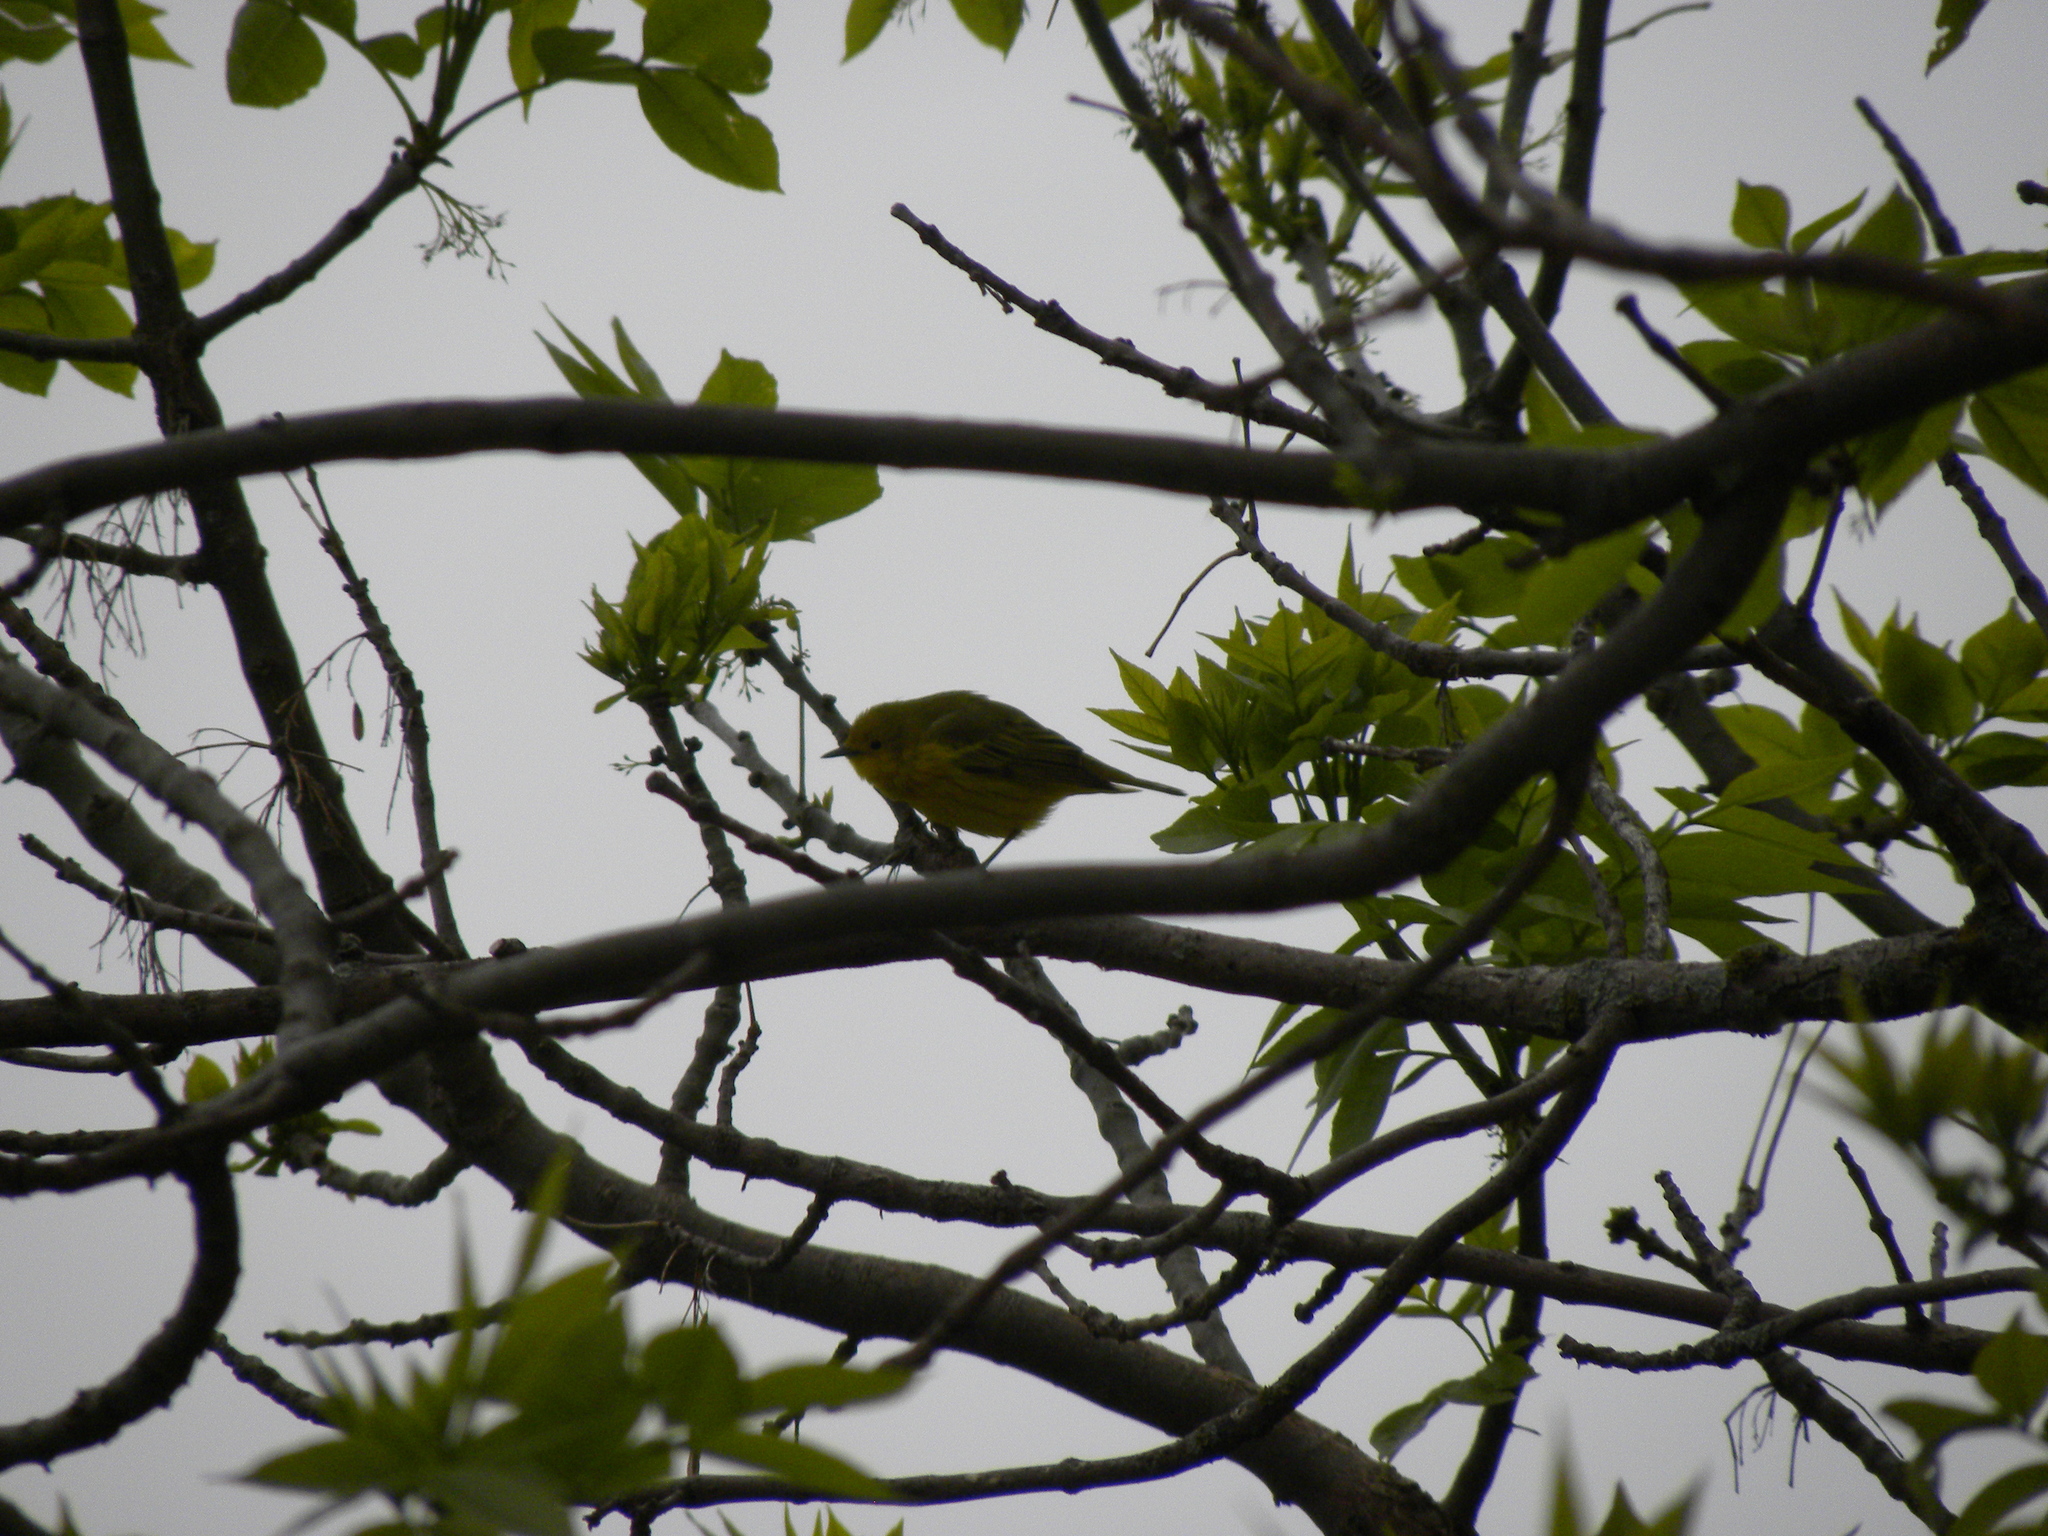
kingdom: Animalia
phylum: Chordata
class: Aves
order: Passeriformes
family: Parulidae
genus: Setophaga
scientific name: Setophaga petechia
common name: Yellow warbler
